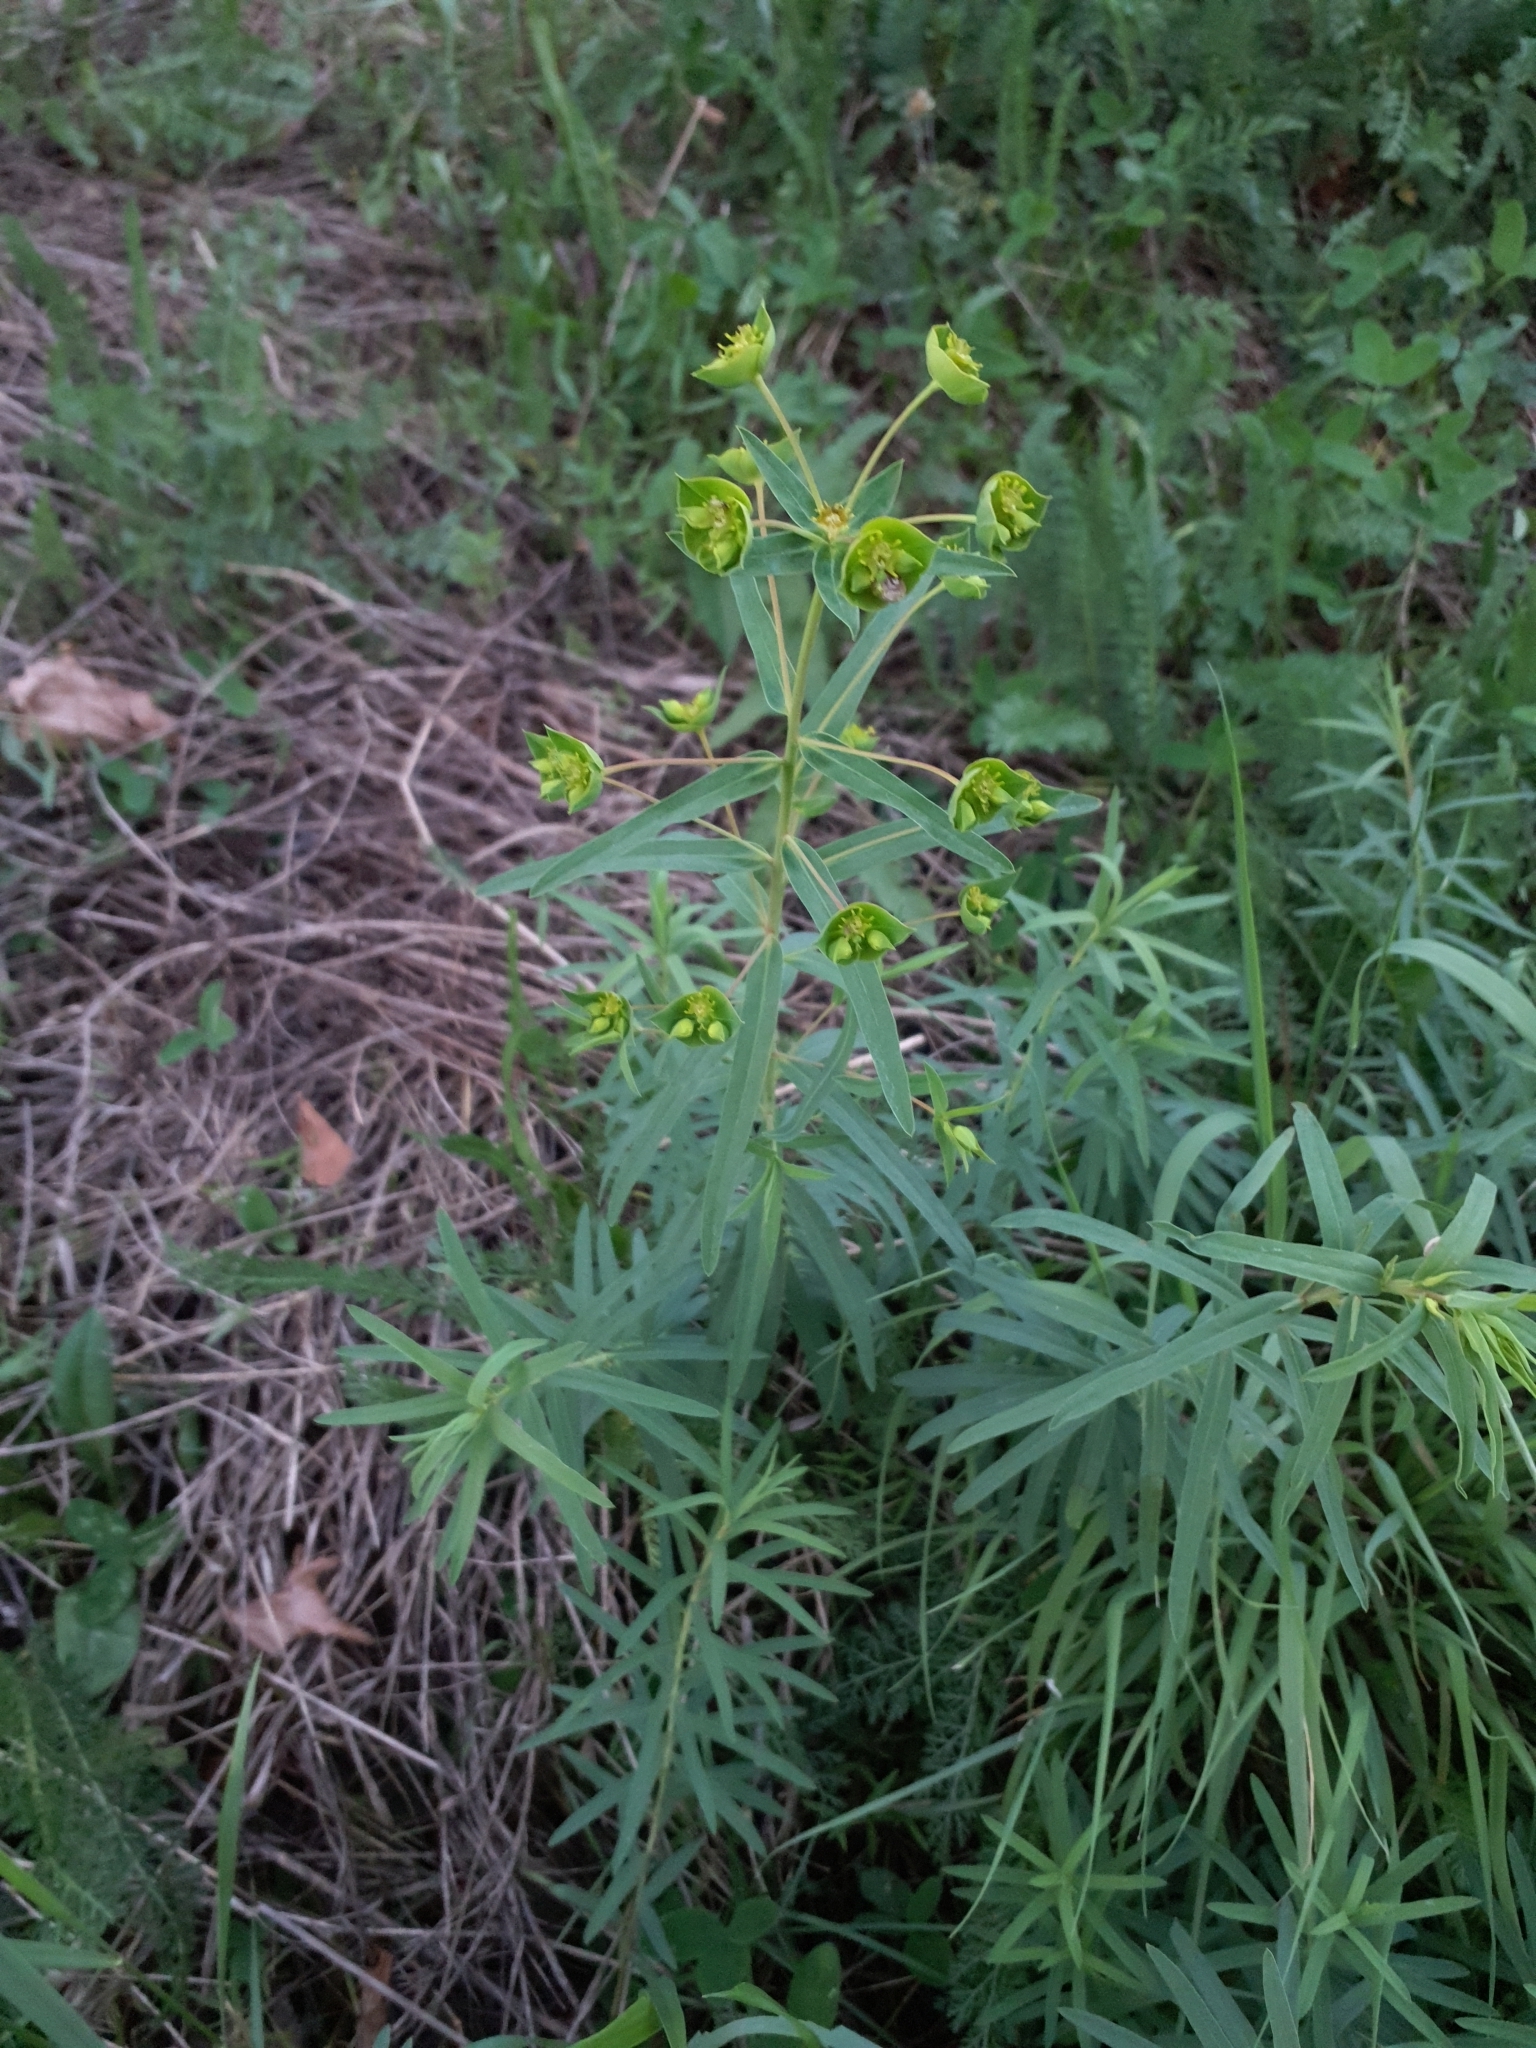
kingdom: Plantae
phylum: Tracheophyta
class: Magnoliopsida
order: Malpighiales
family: Euphorbiaceae
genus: Euphorbia
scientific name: Euphorbia virgata
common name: Leafy spurge
